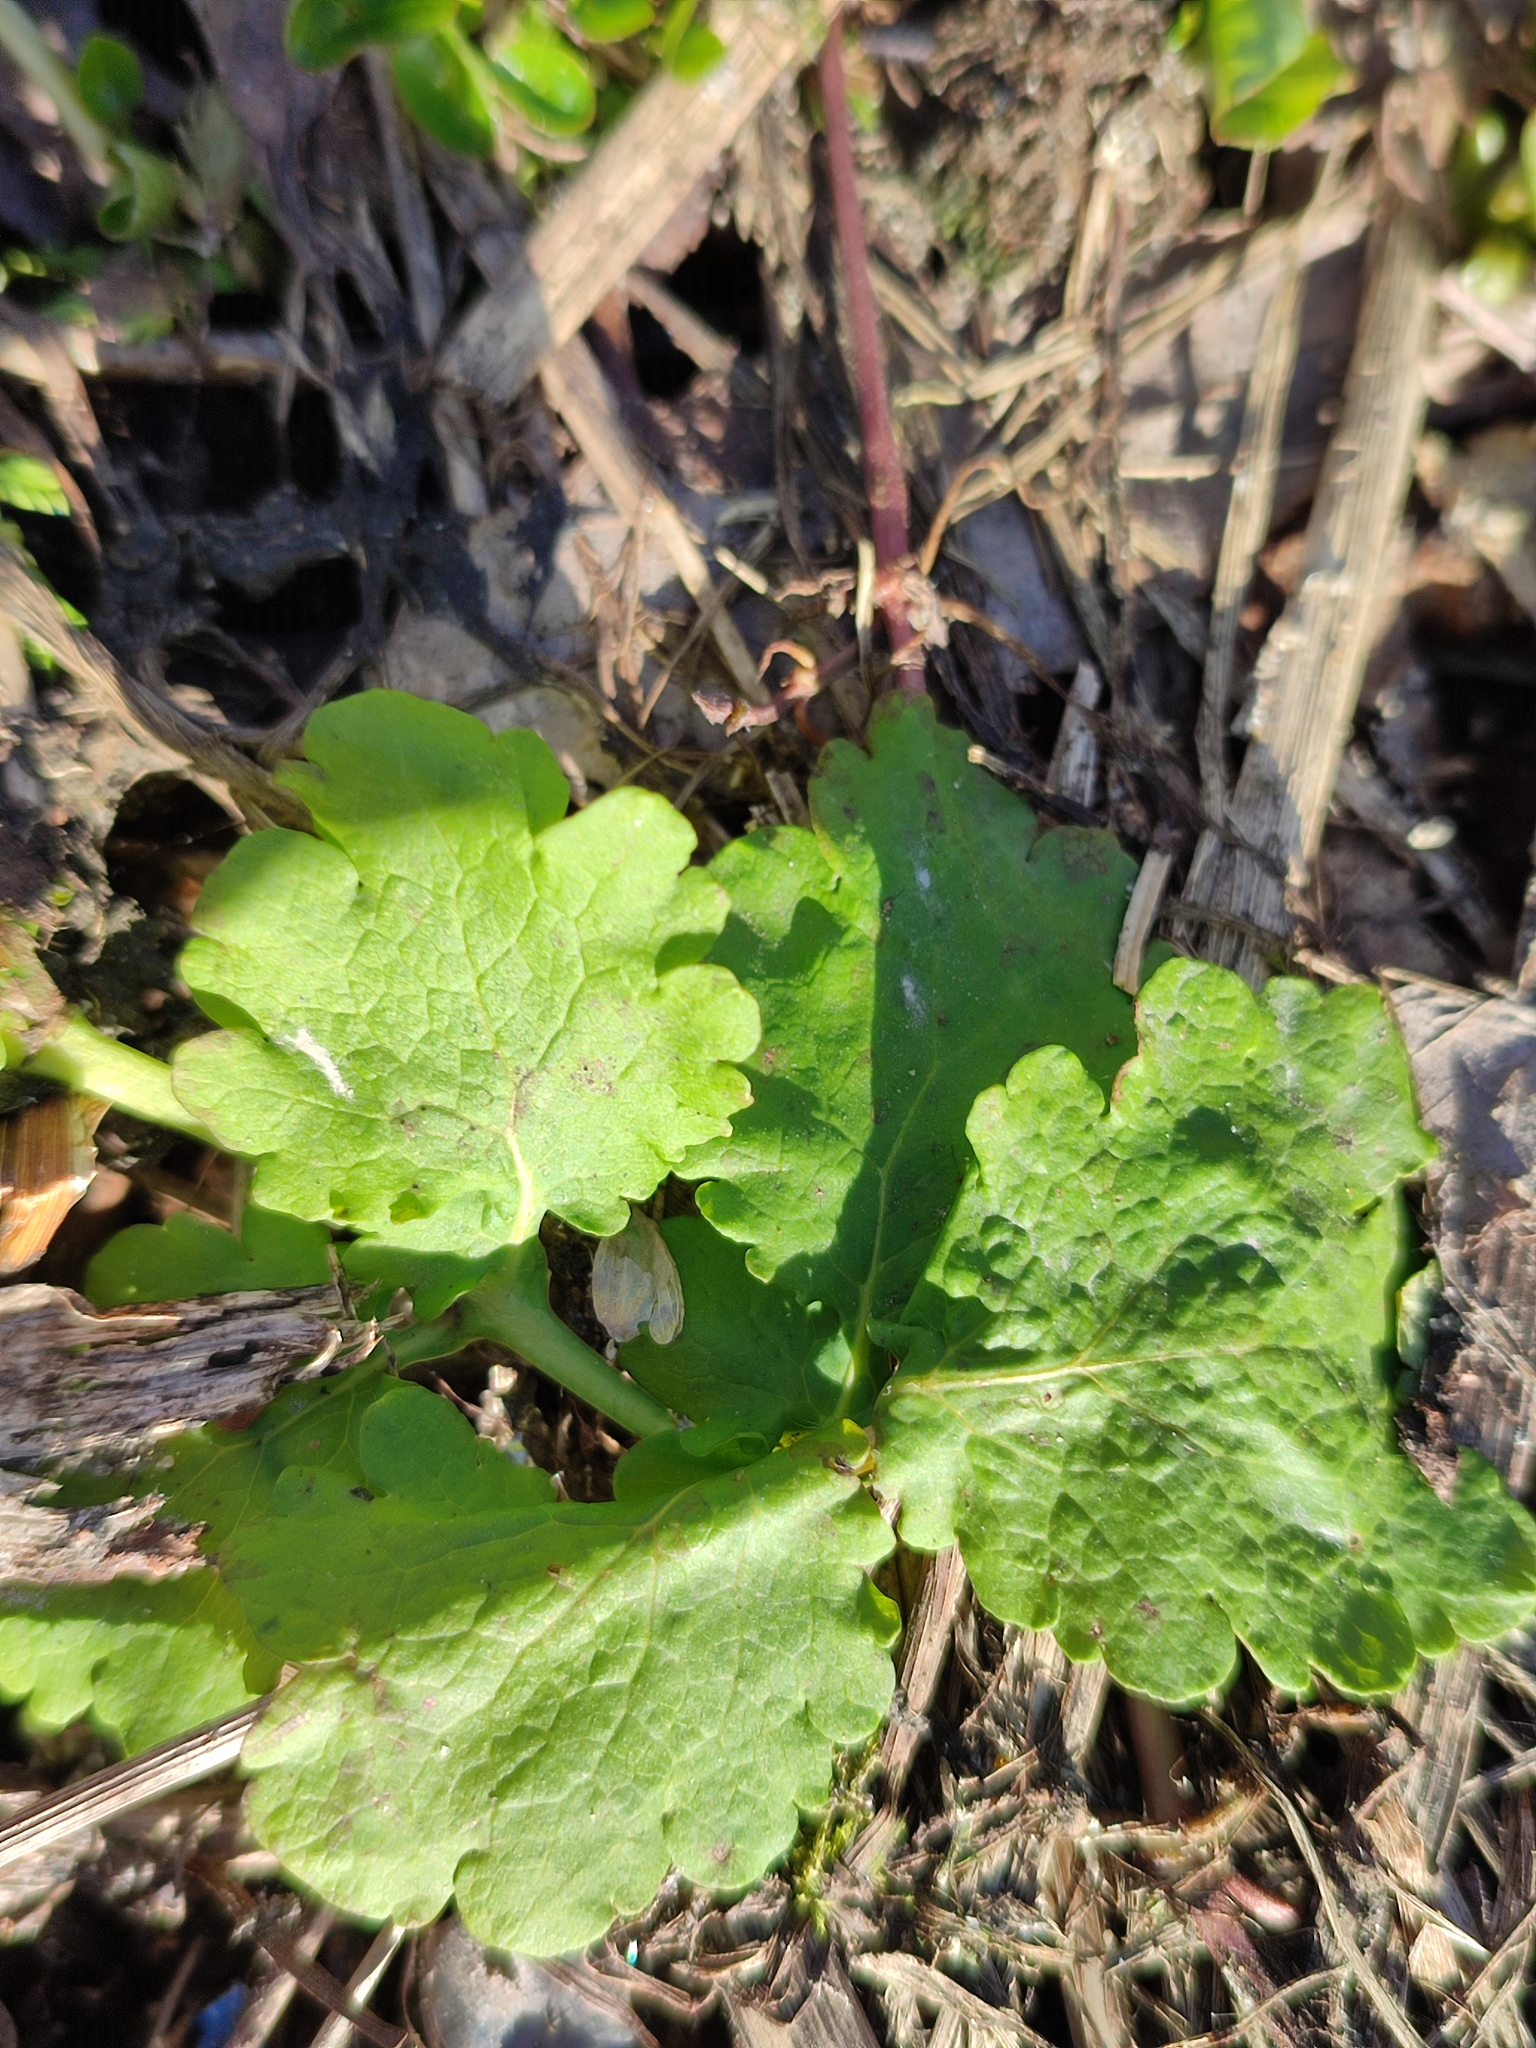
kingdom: Plantae
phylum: Tracheophyta
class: Magnoliopsida
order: Ranunculales
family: Papaveraceae
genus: Chelidonium
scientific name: Chelidonium majus
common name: Greater celandine
